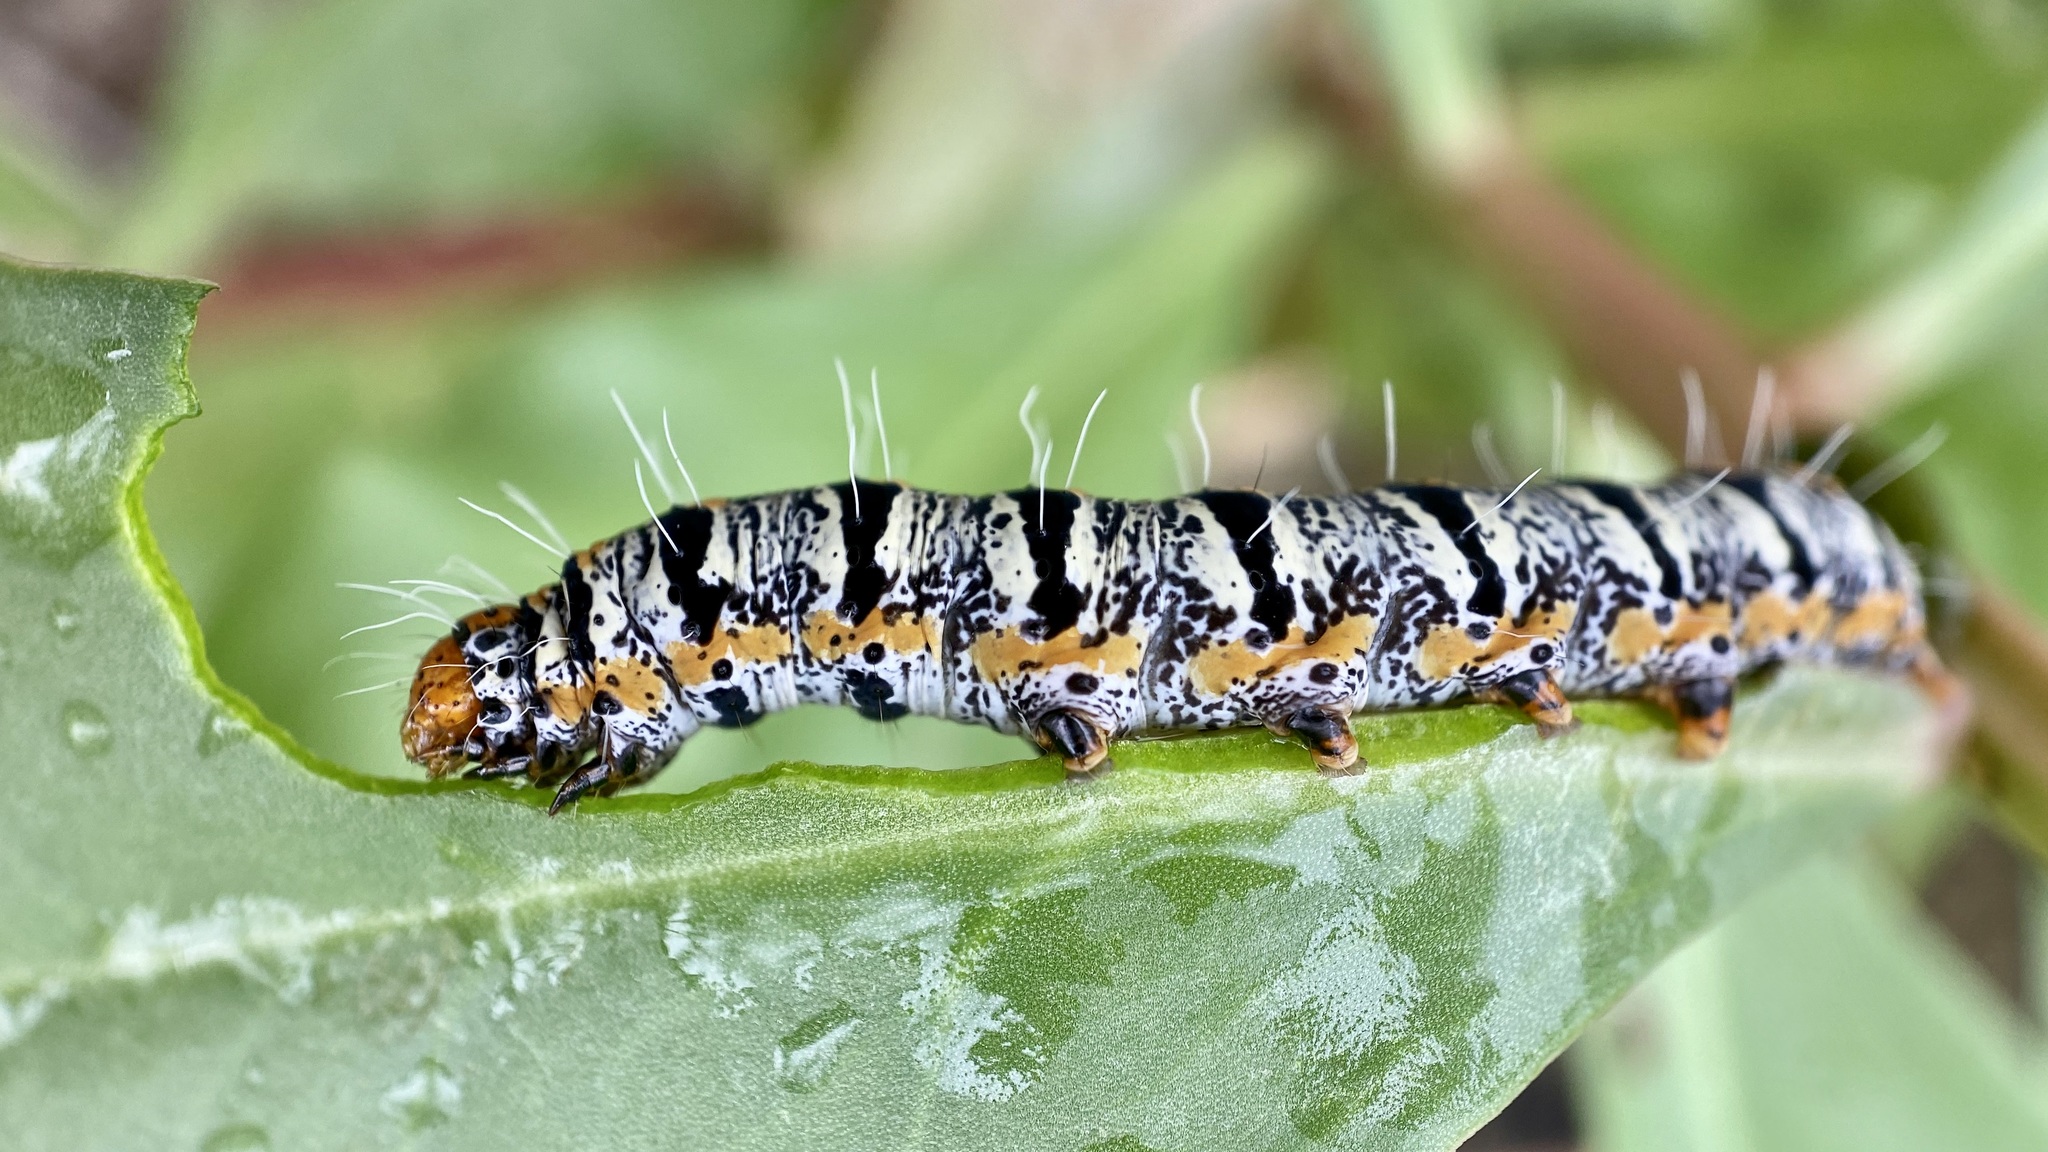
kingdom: Animalia
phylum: Arthropoda
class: Insecta
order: Lepidoptera
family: Noctuidae
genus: Euscirrhopterus
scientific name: Euscirrhopterus gloveri
